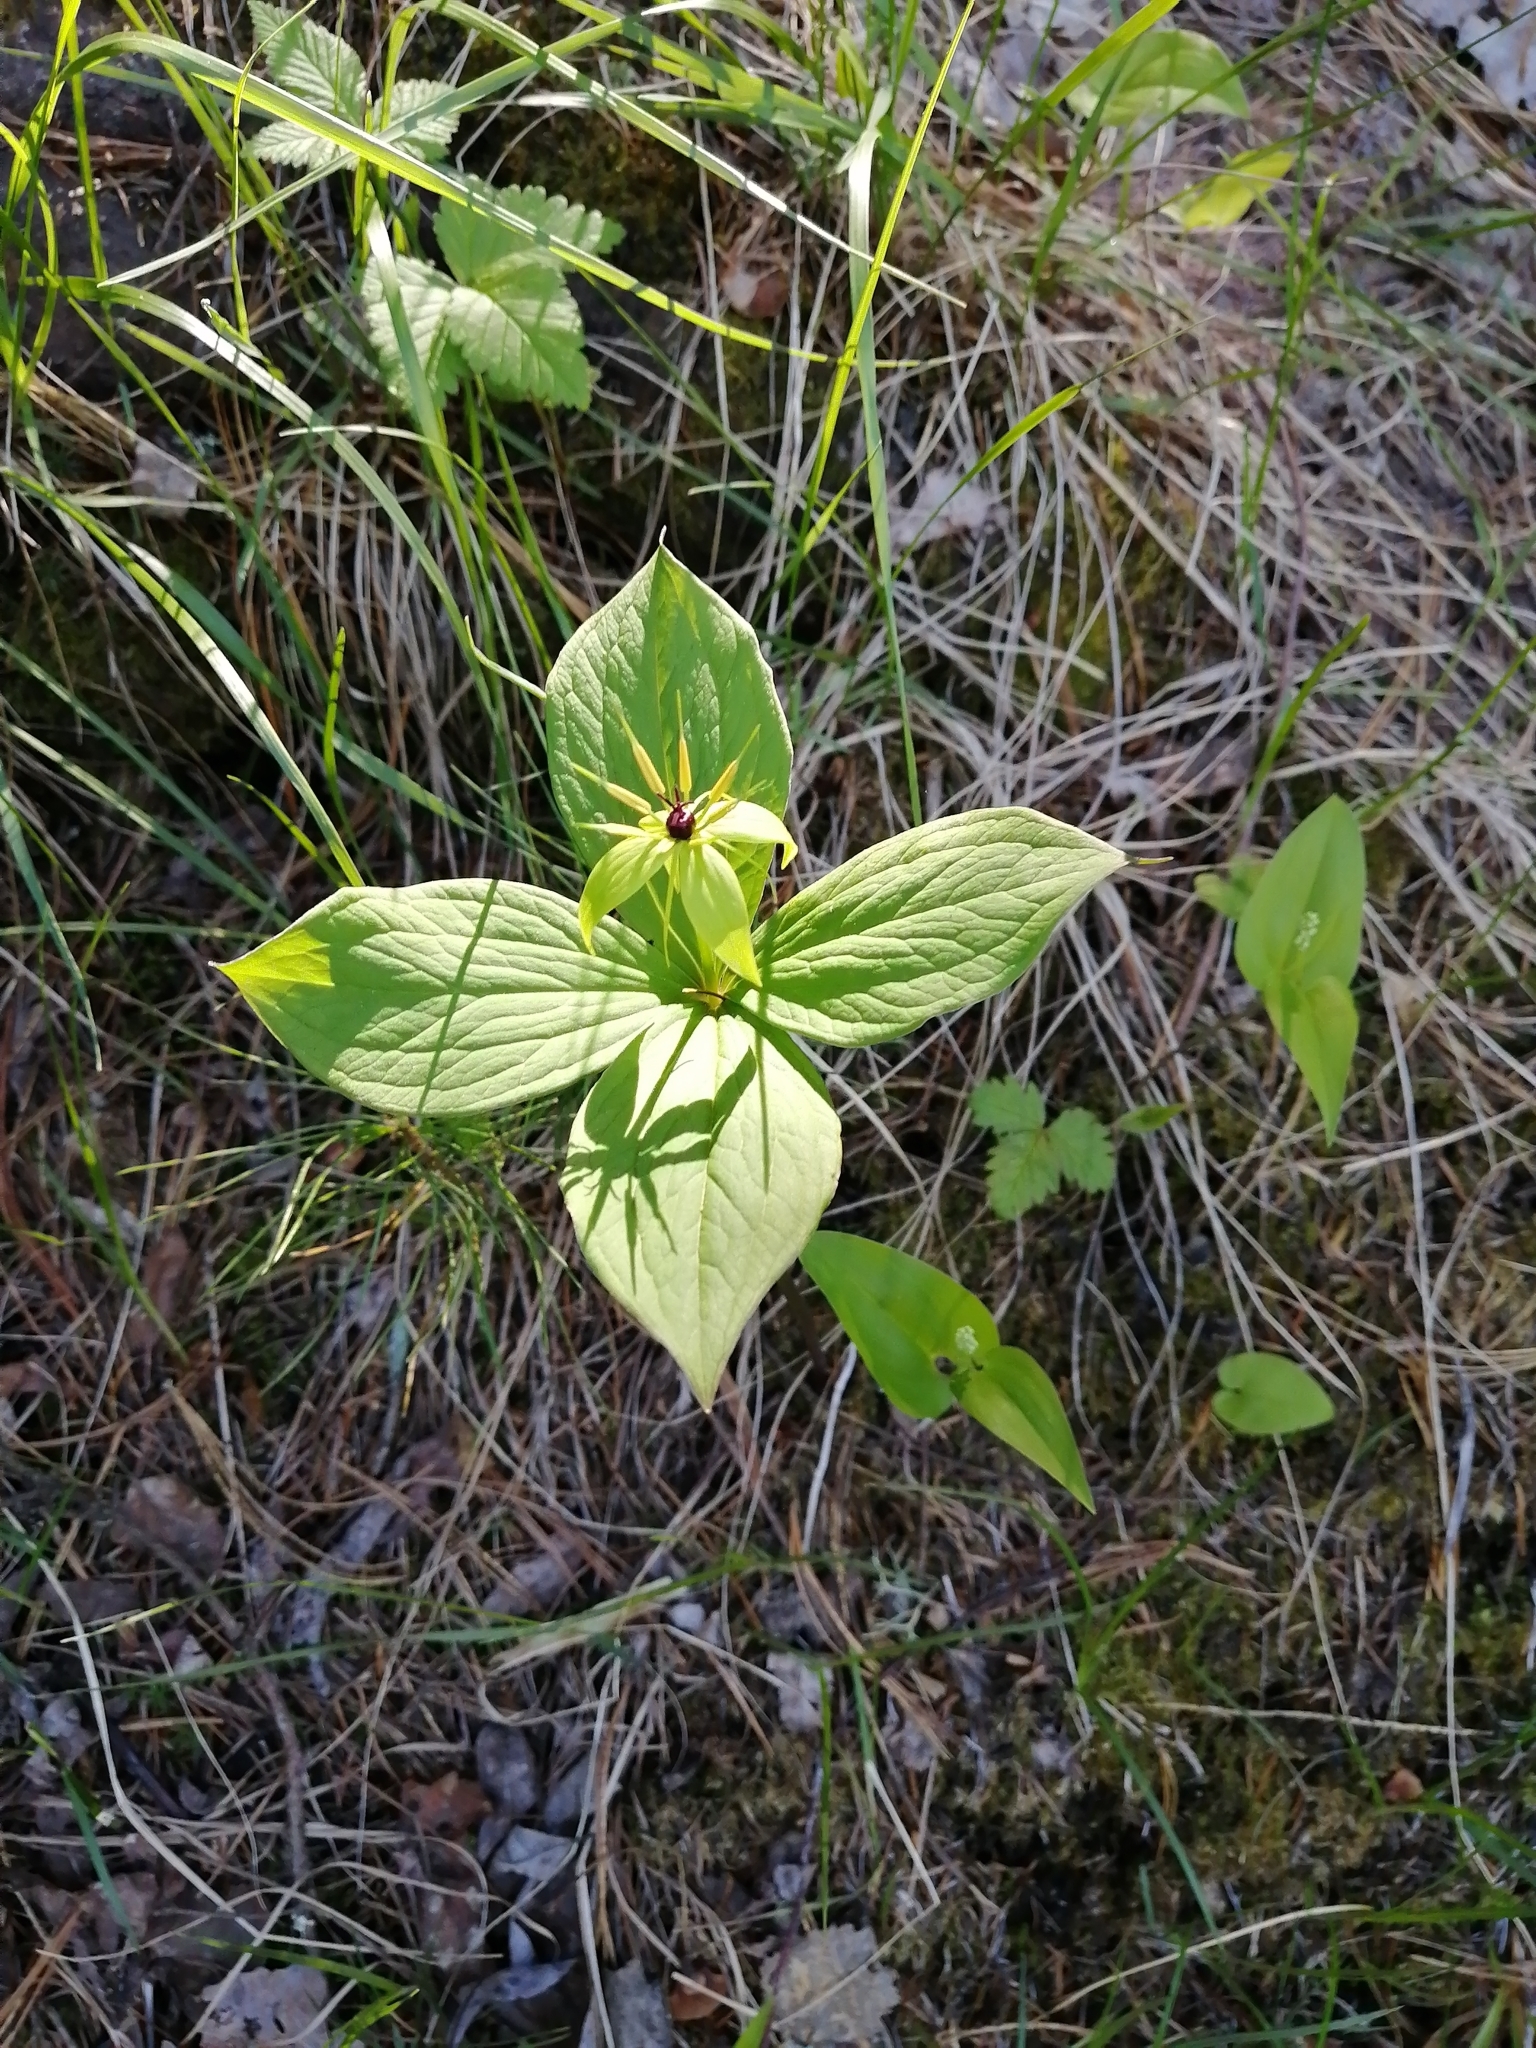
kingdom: Plantae
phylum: Tracheophyta
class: Liliopsida
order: Liliales
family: Melanthiaceae
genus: Paris
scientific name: Paris quadrifolia
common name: Herb-paris
